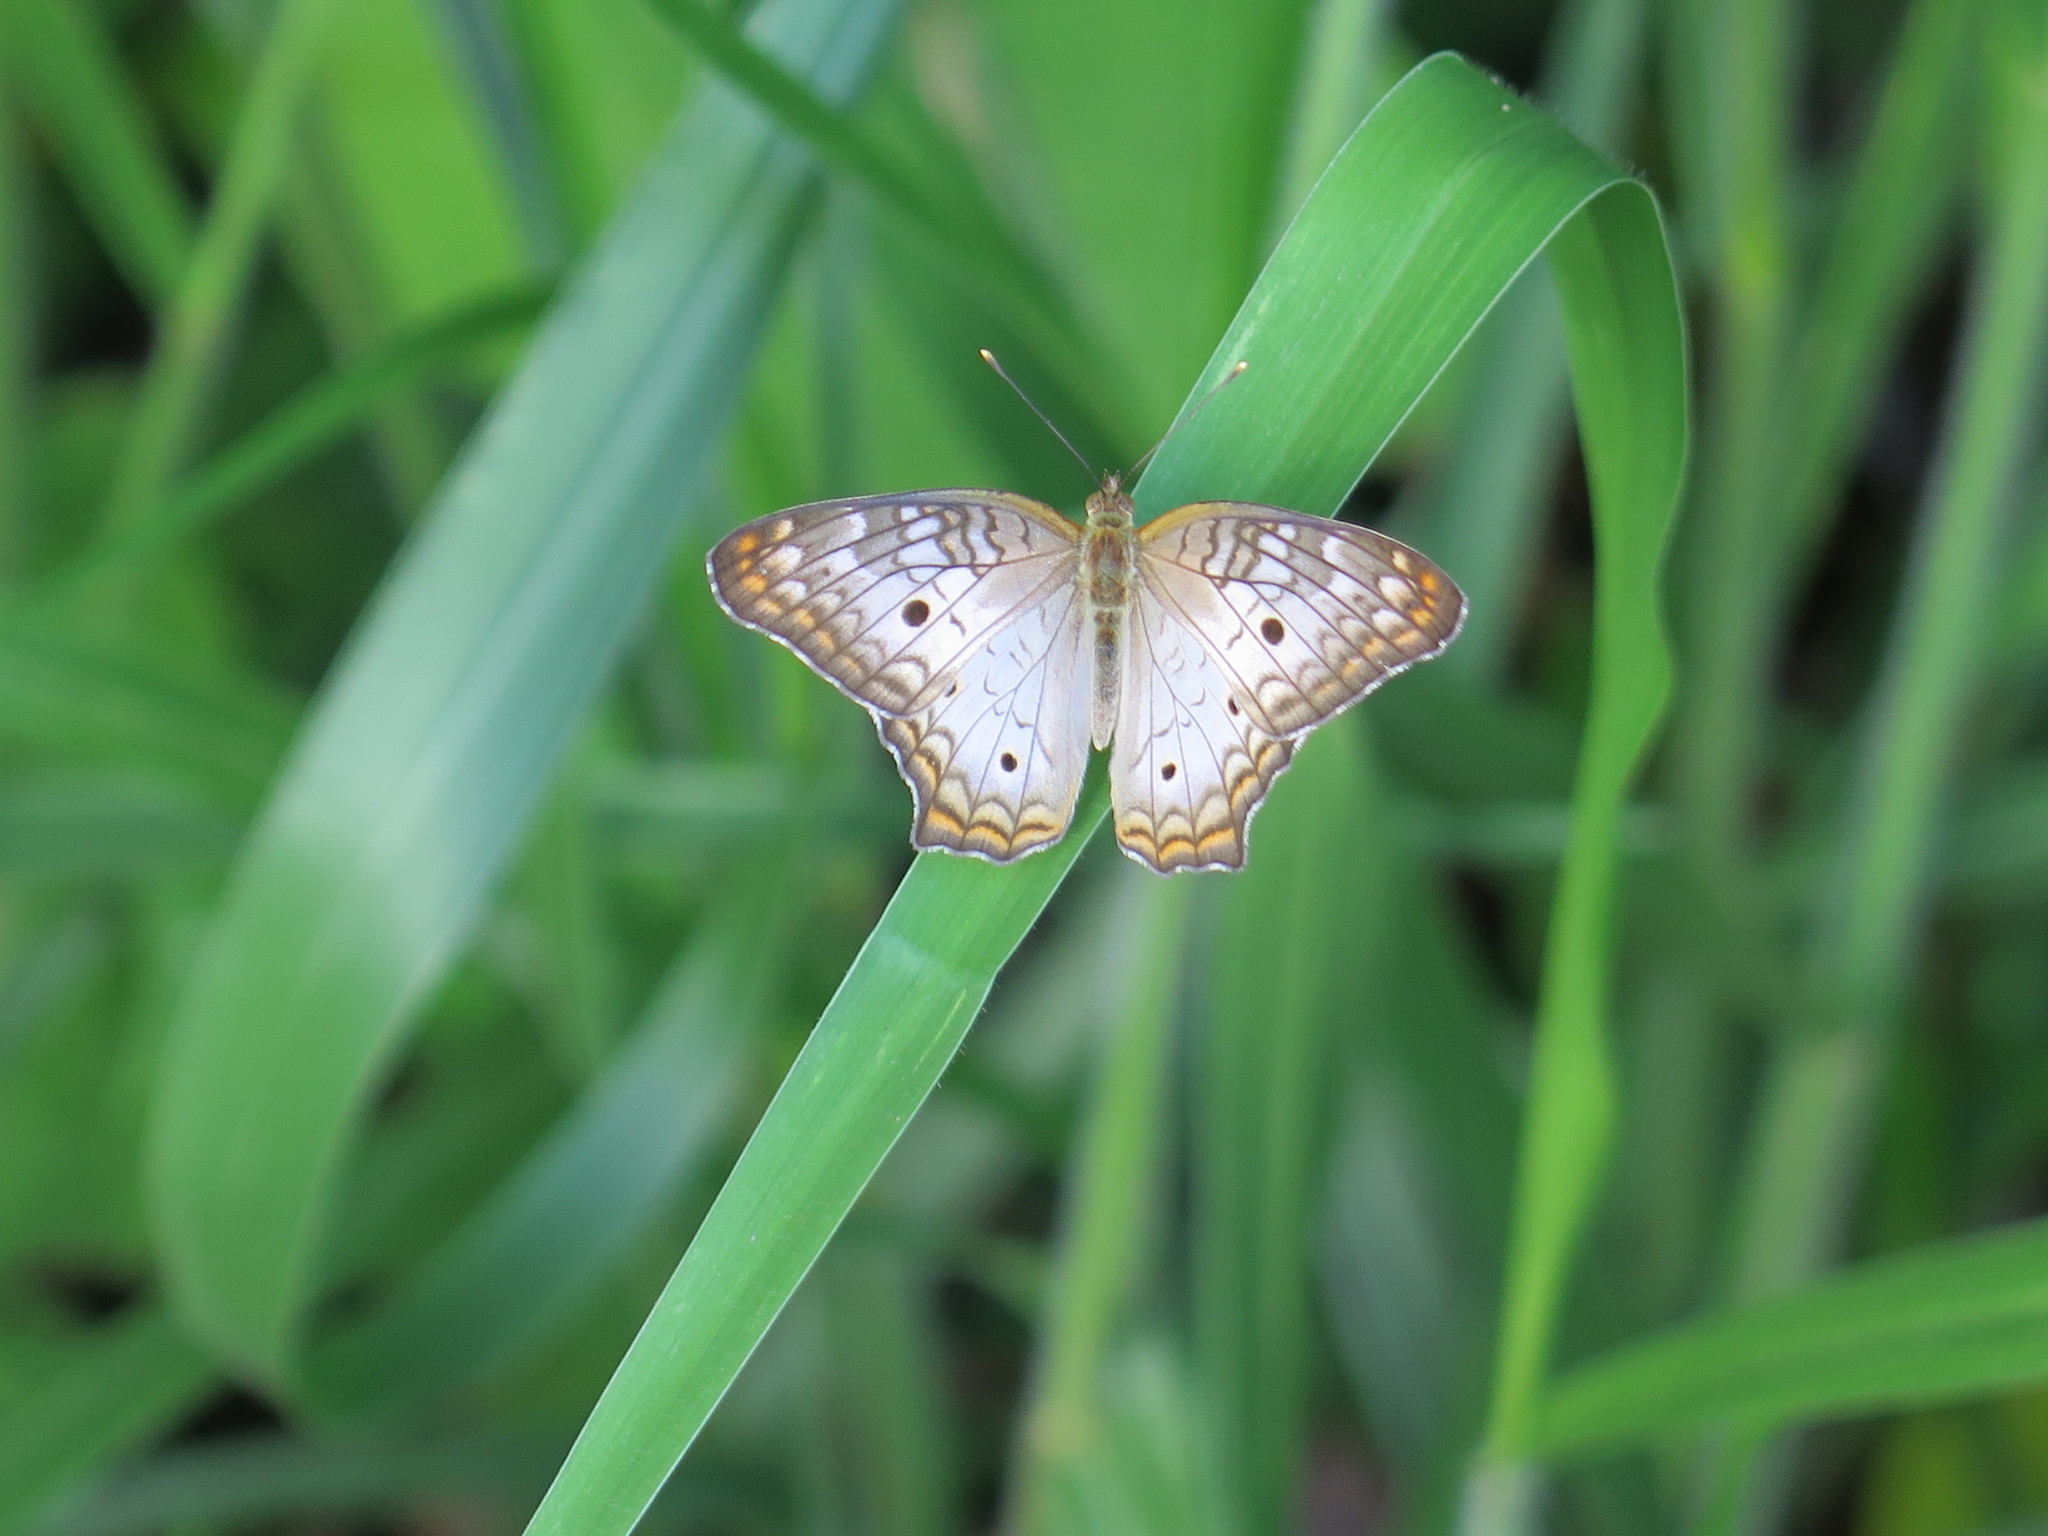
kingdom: Animalia
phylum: Arthropoda
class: Insecta
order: Lepidoptera
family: Nymphalidae
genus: Anartia
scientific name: Anartia jatrophae
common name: White peacock
